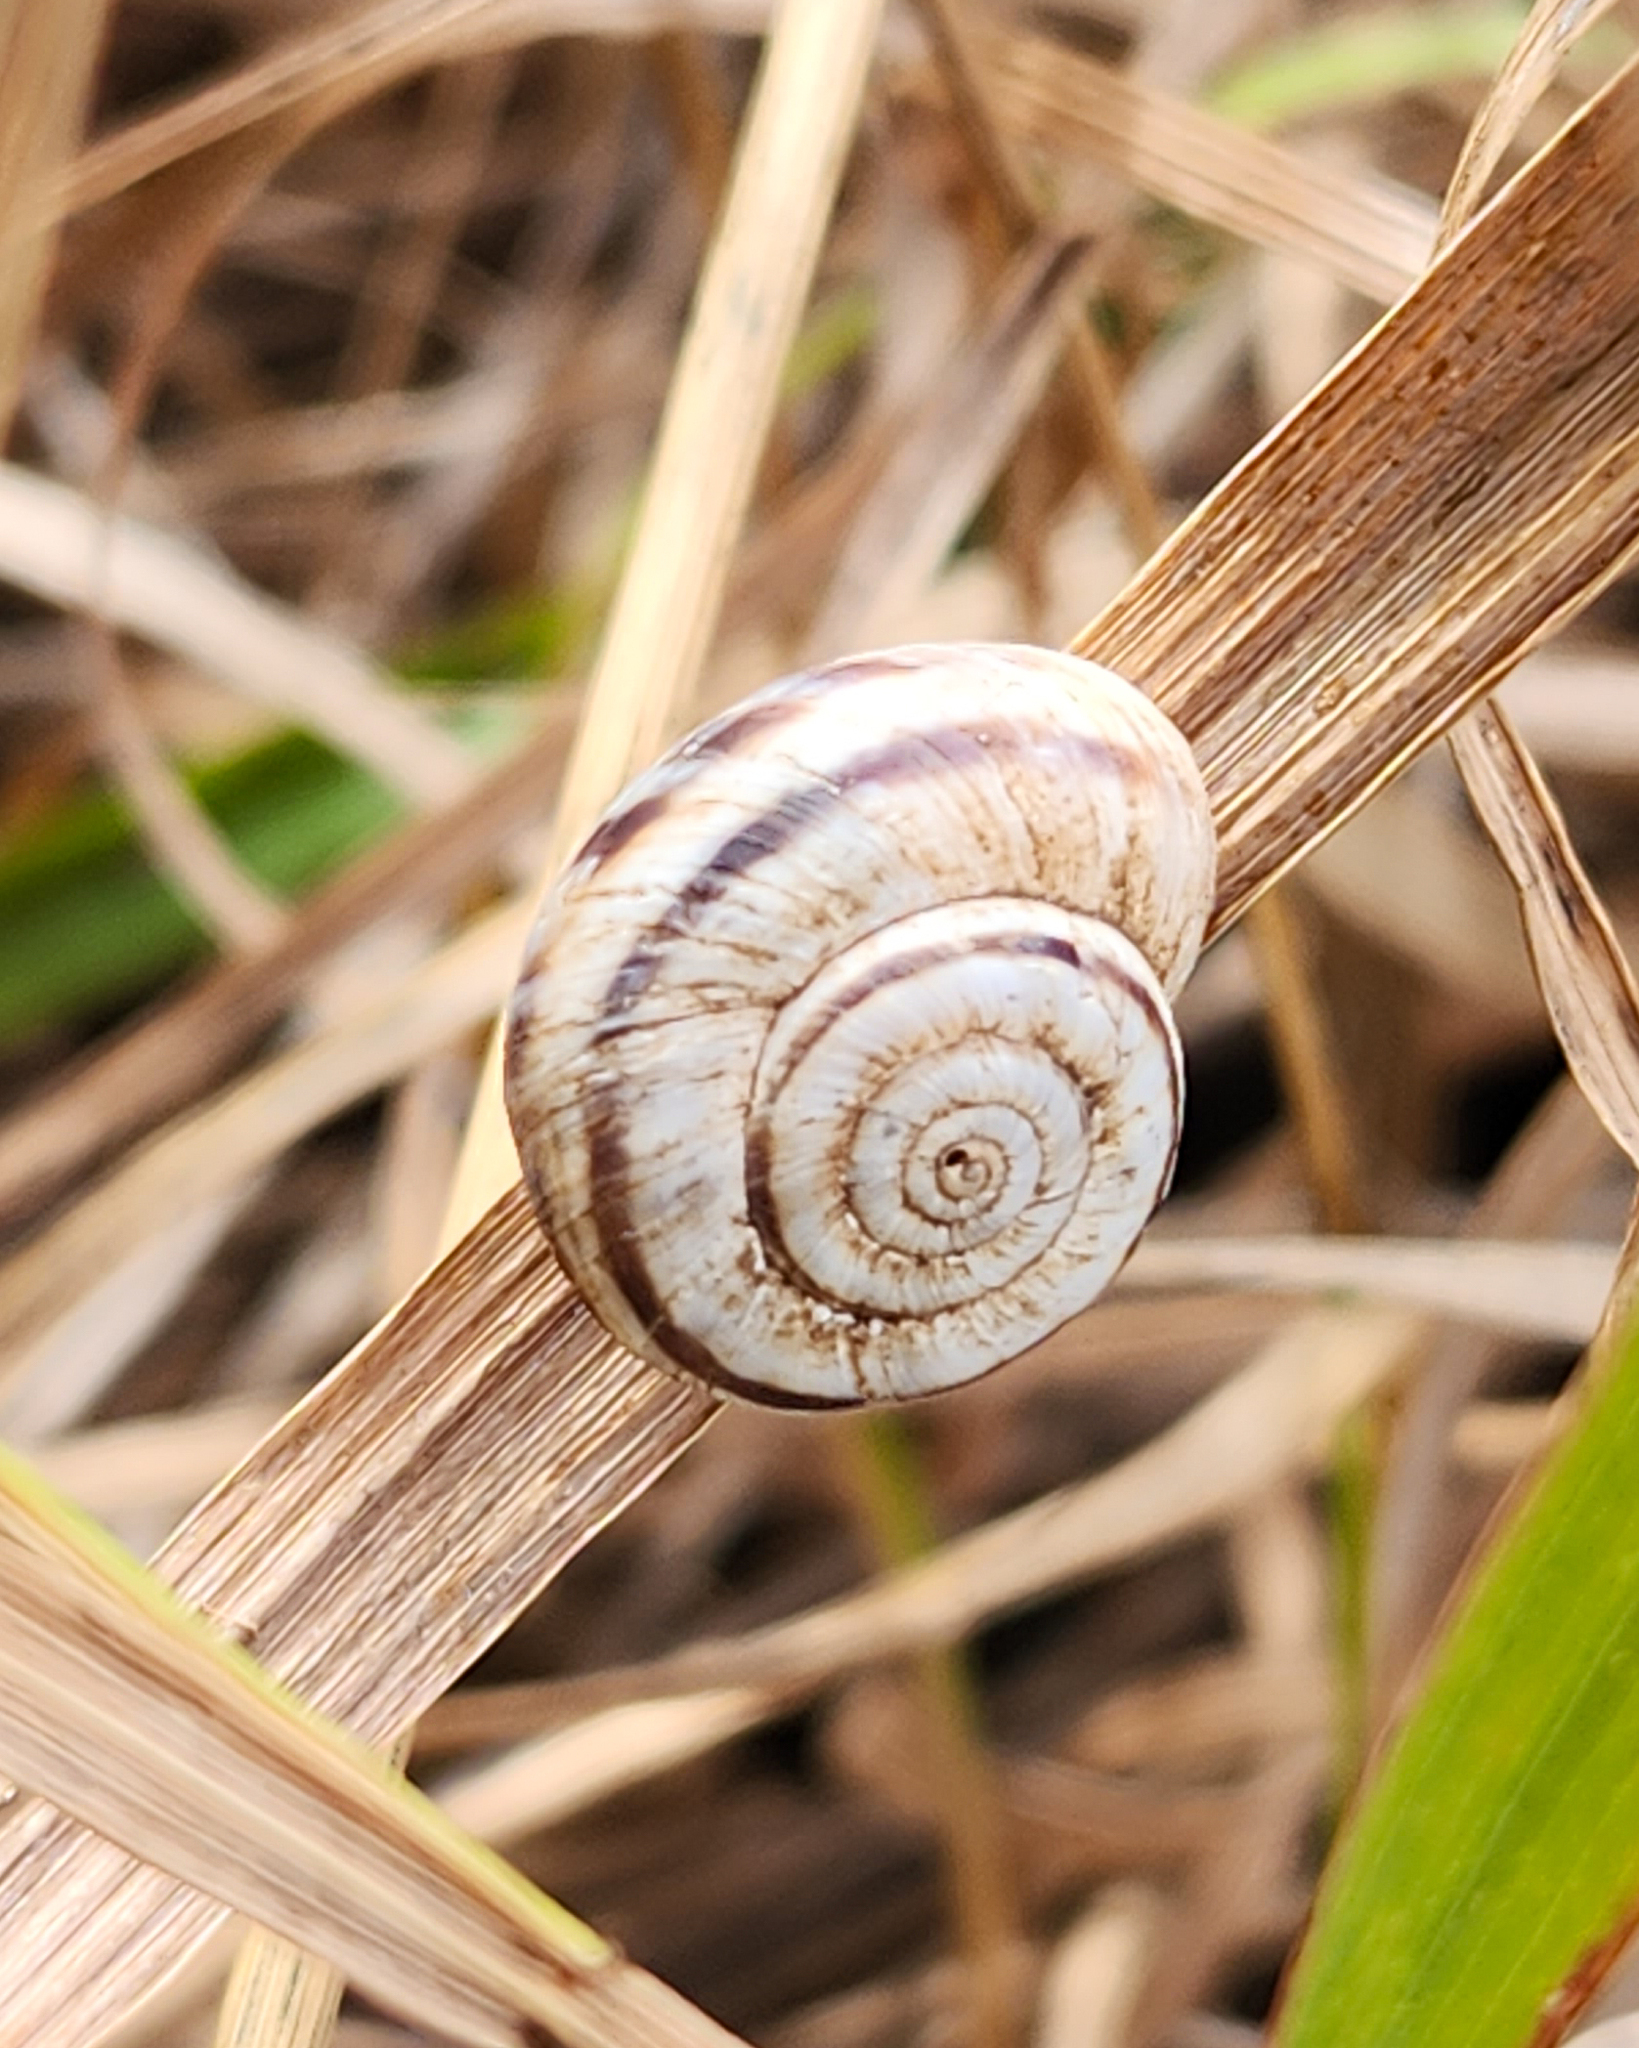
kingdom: Animalia
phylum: Mollusca
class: Gastropoda
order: Stylommatophora
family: Geomitridae
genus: Xerolenta
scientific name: Xerolenta obvia
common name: White heath snail
